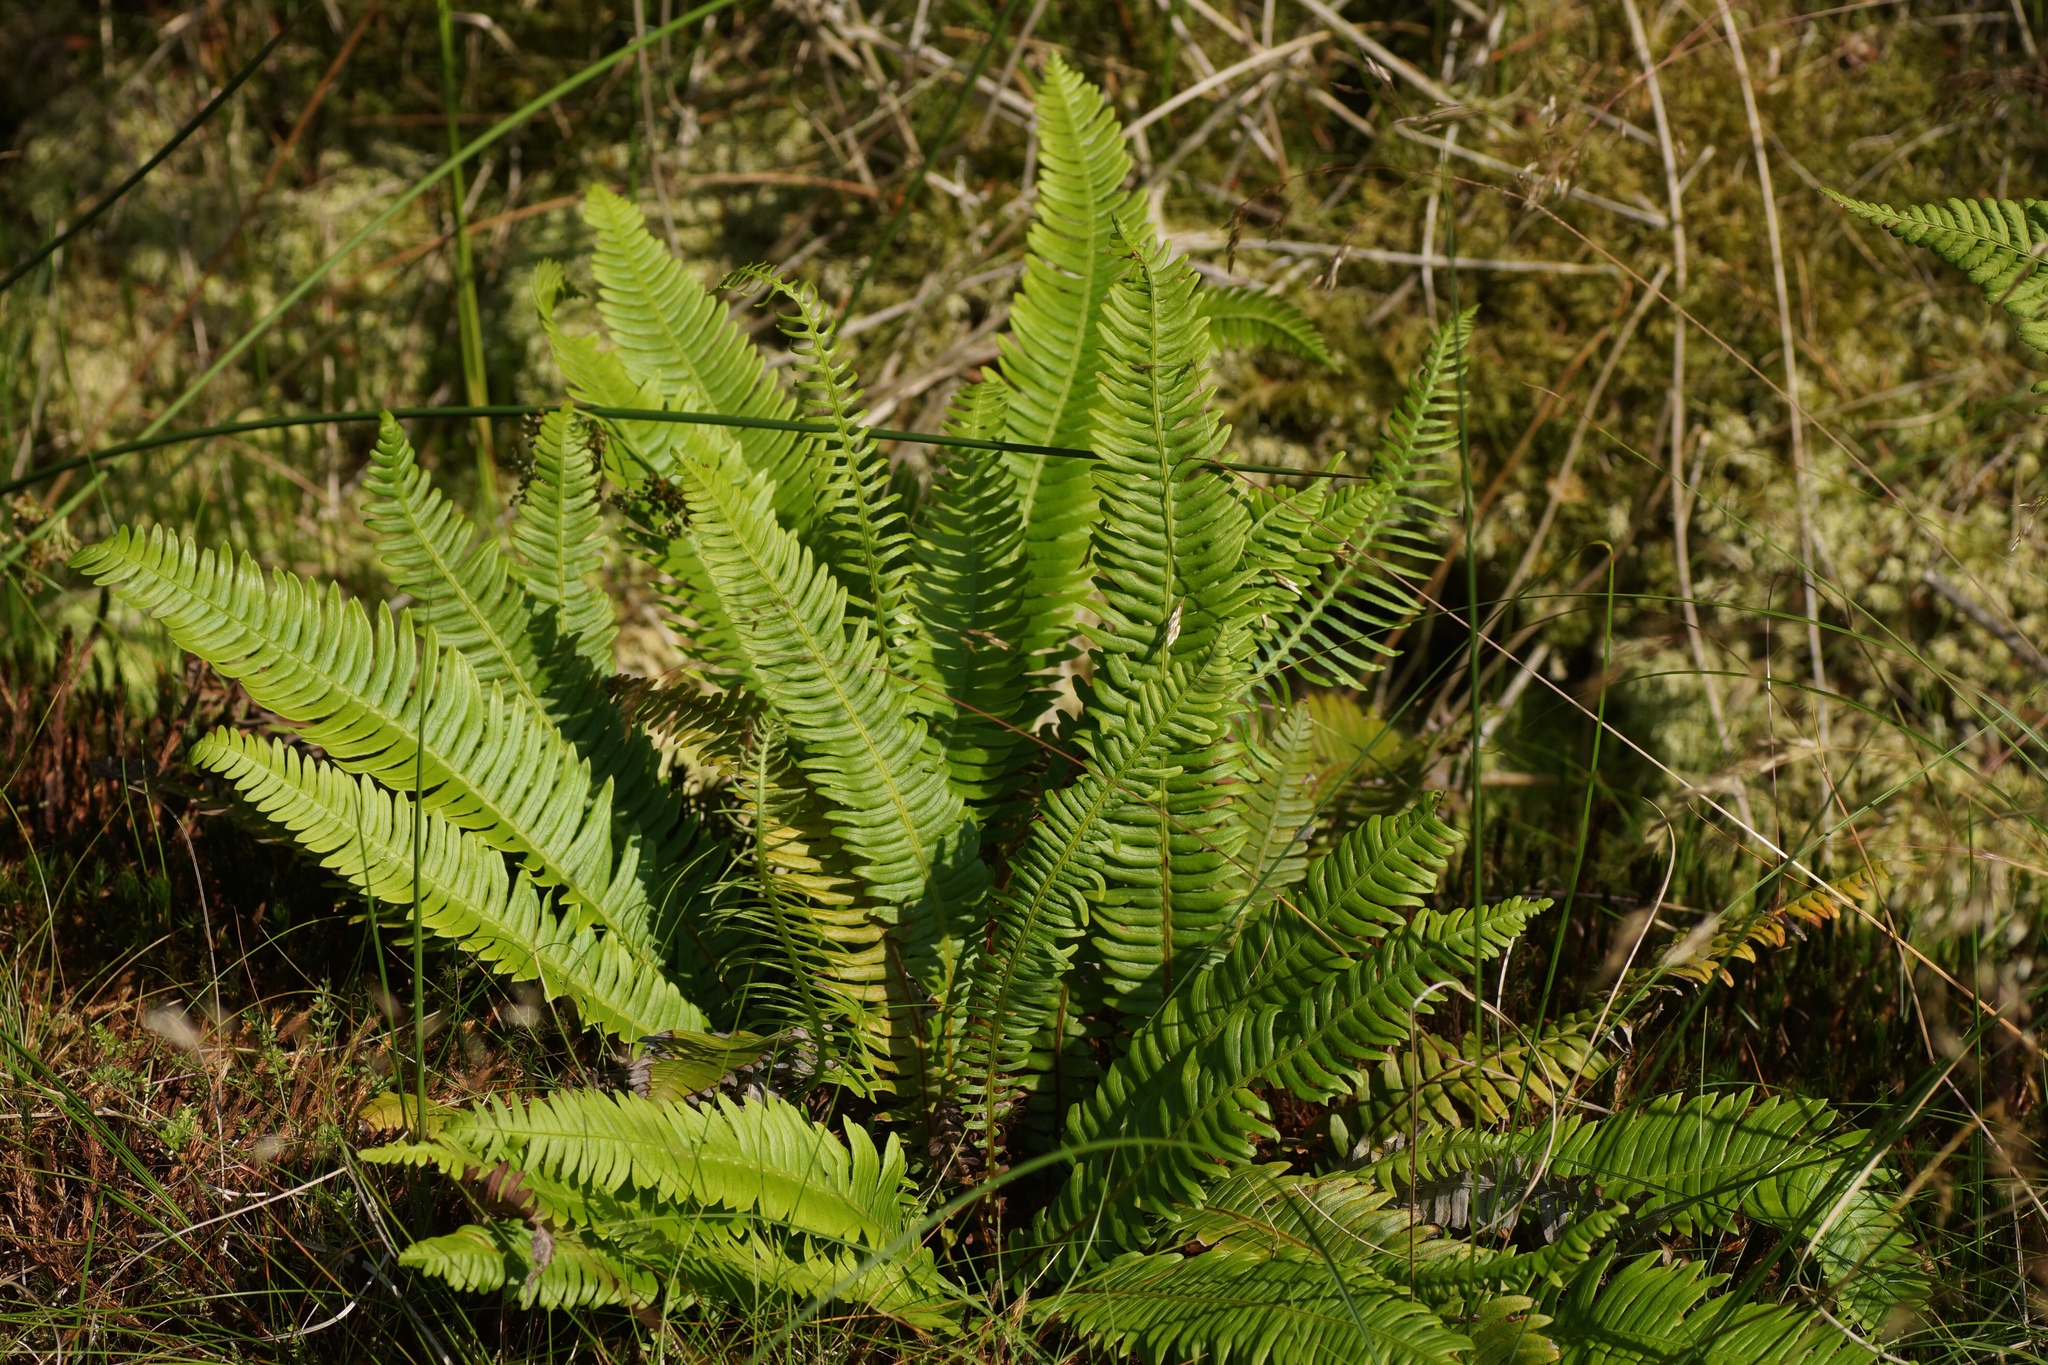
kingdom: Plantae
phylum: Tracheophyta
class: Polypodiopsida
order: Polypodiales
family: Blechnaceae
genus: Struthiopteris
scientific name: Struthiopteris spicant
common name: Deer fern
